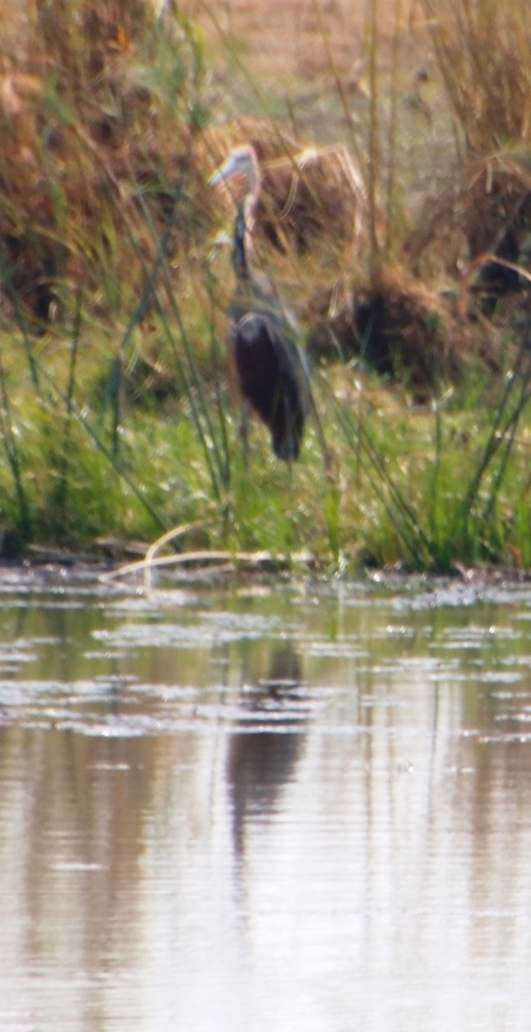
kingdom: Animalia
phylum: Chordata
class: Aves
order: Pelecaniformes
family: Ardeidae
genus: Ardea
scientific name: Ardea goliath
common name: Goliath heron
